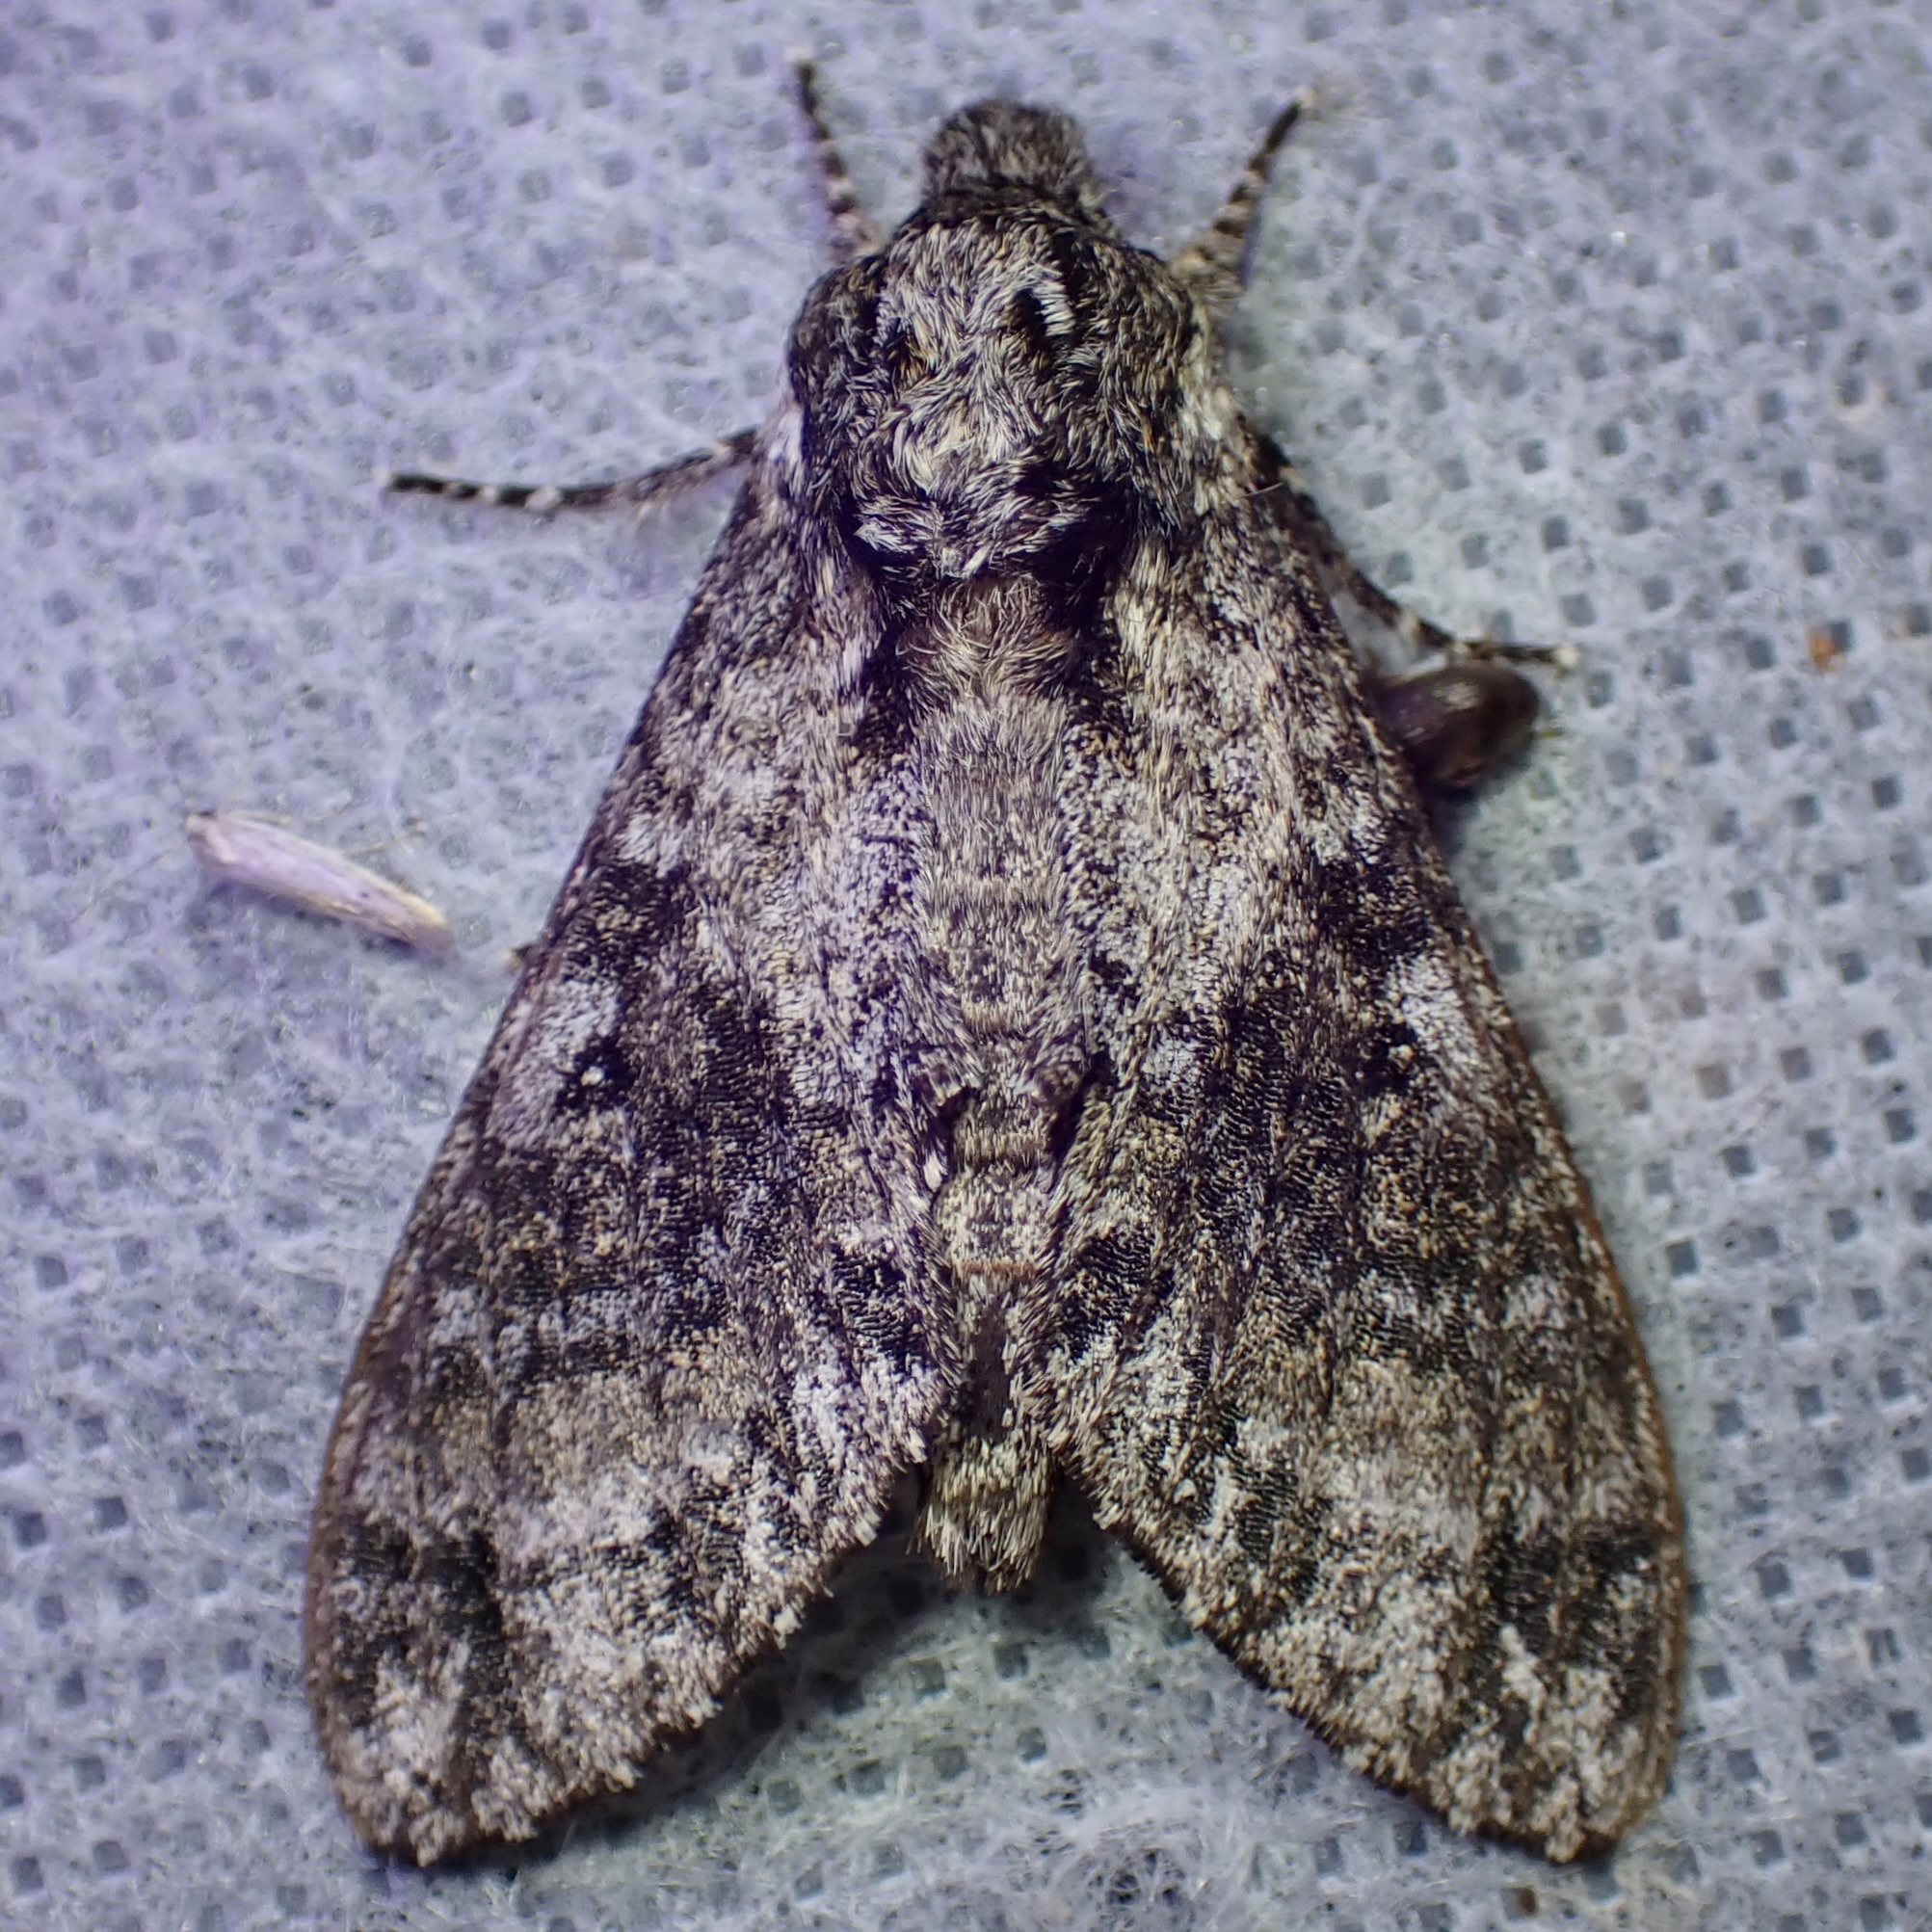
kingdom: Animalia
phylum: Arthropoda
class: Insecta
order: Lepidoptera
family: Sphingidae
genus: Dolbogene
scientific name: Dolbogene hartwegii
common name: Hartweg's sphinx
